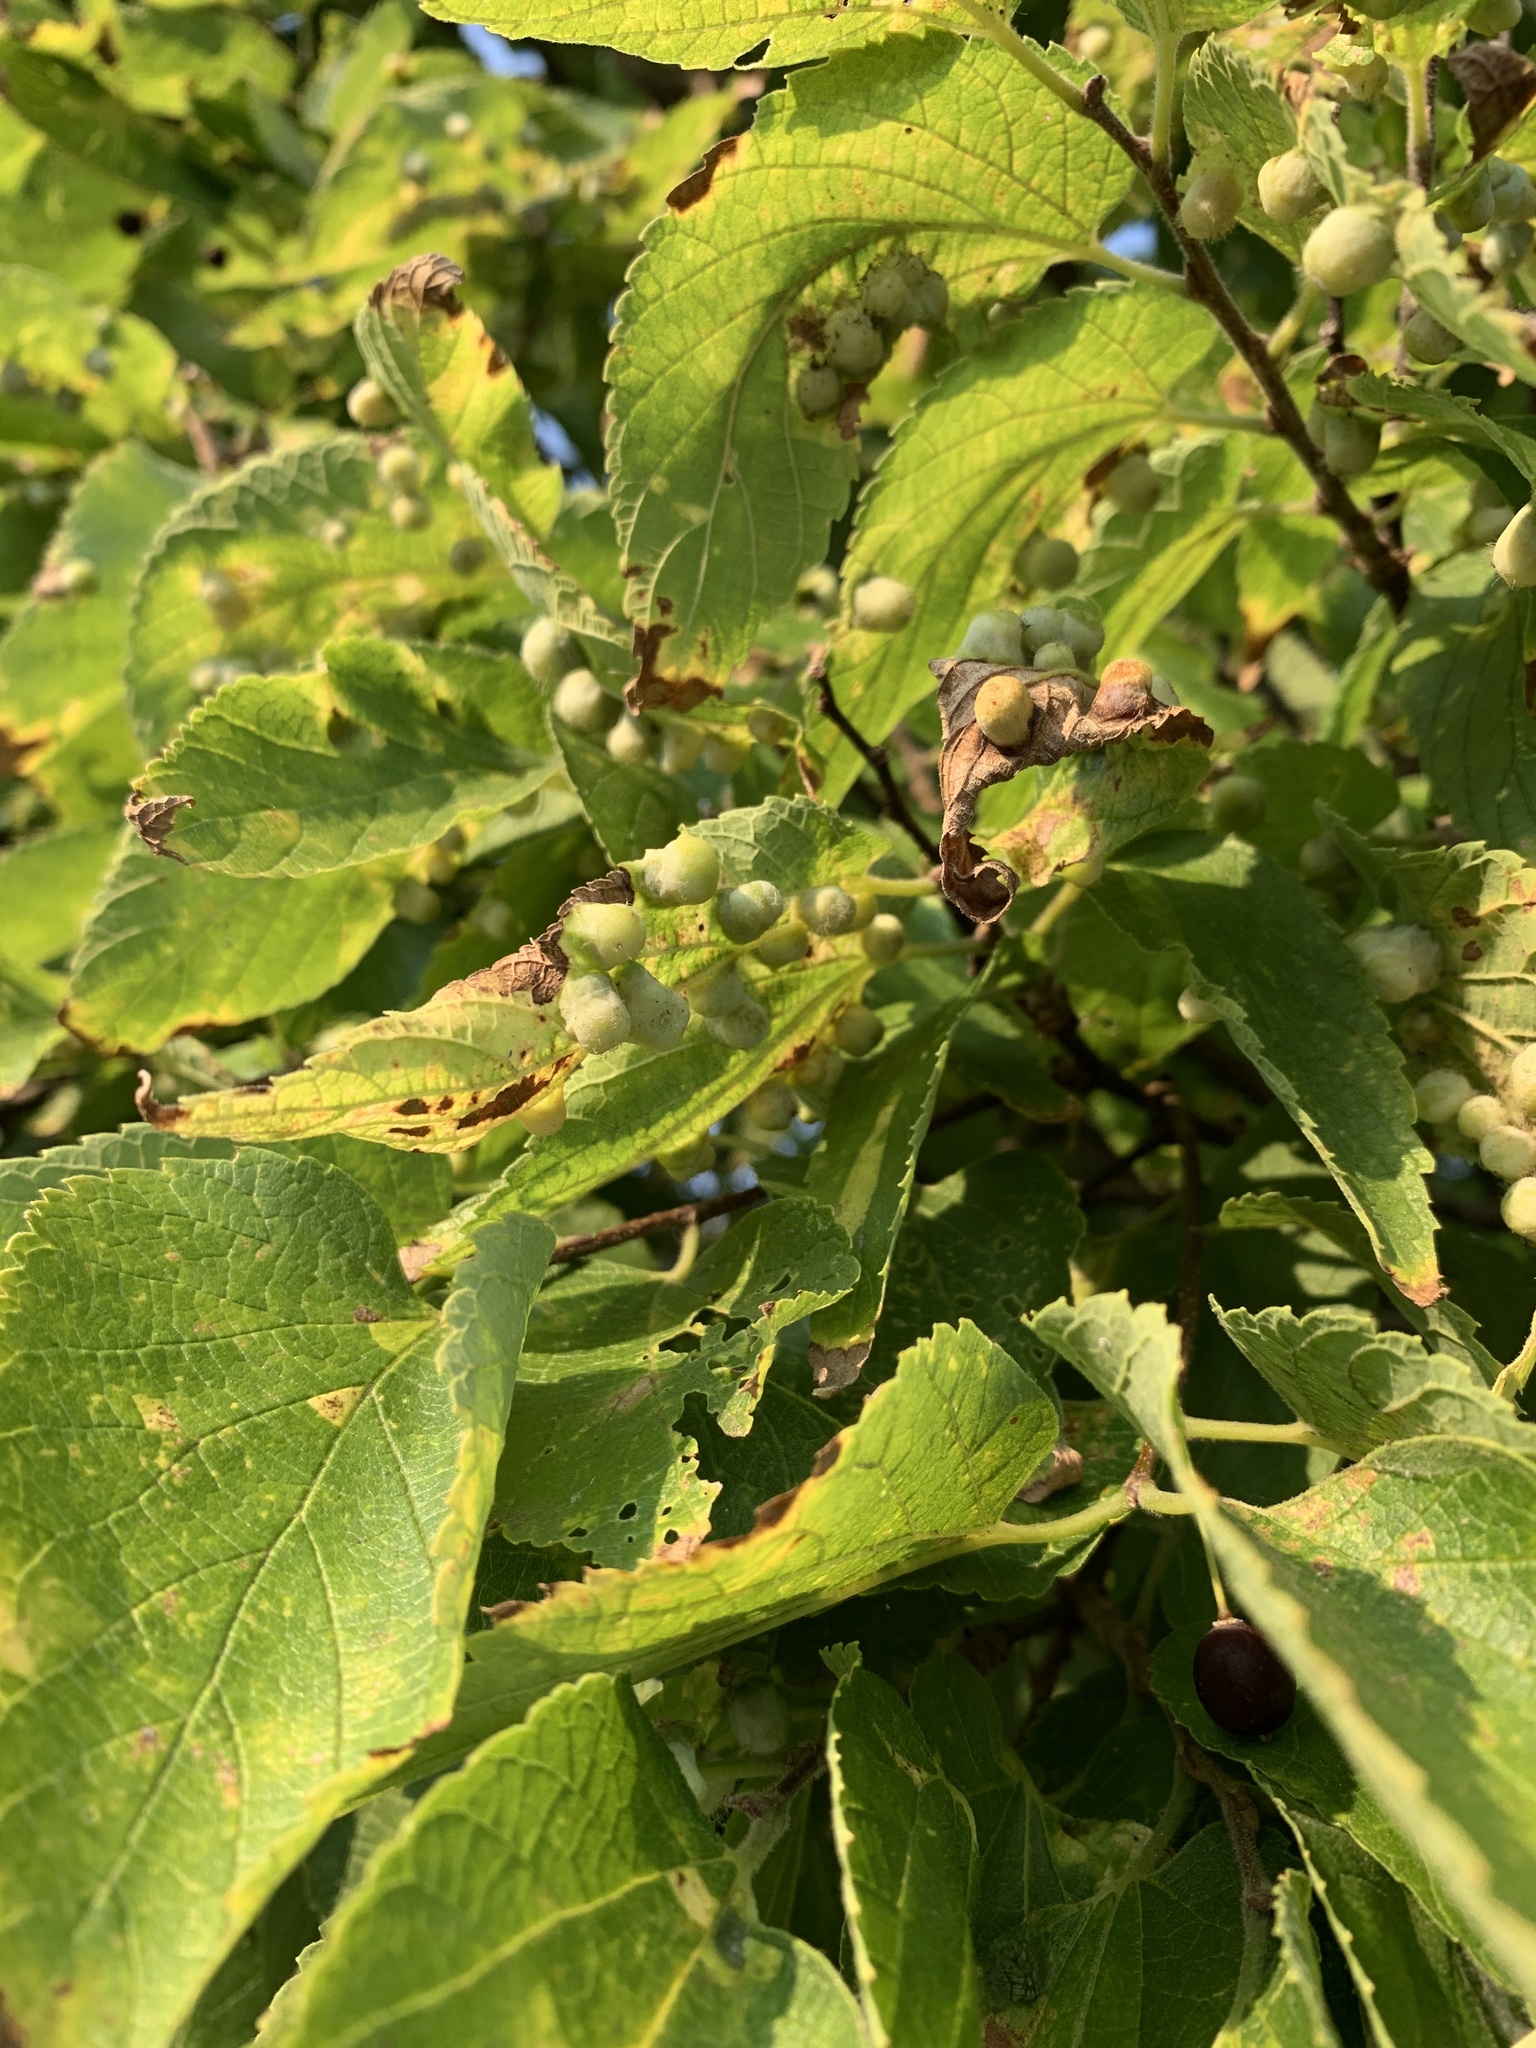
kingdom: Animalia
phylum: Arthropoda
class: Insecta
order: Hemiptera
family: Aphalaridae
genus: Pachypsylla
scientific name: Pachypsylla celtidismamma
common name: Hackberry nipplegall psyllid
